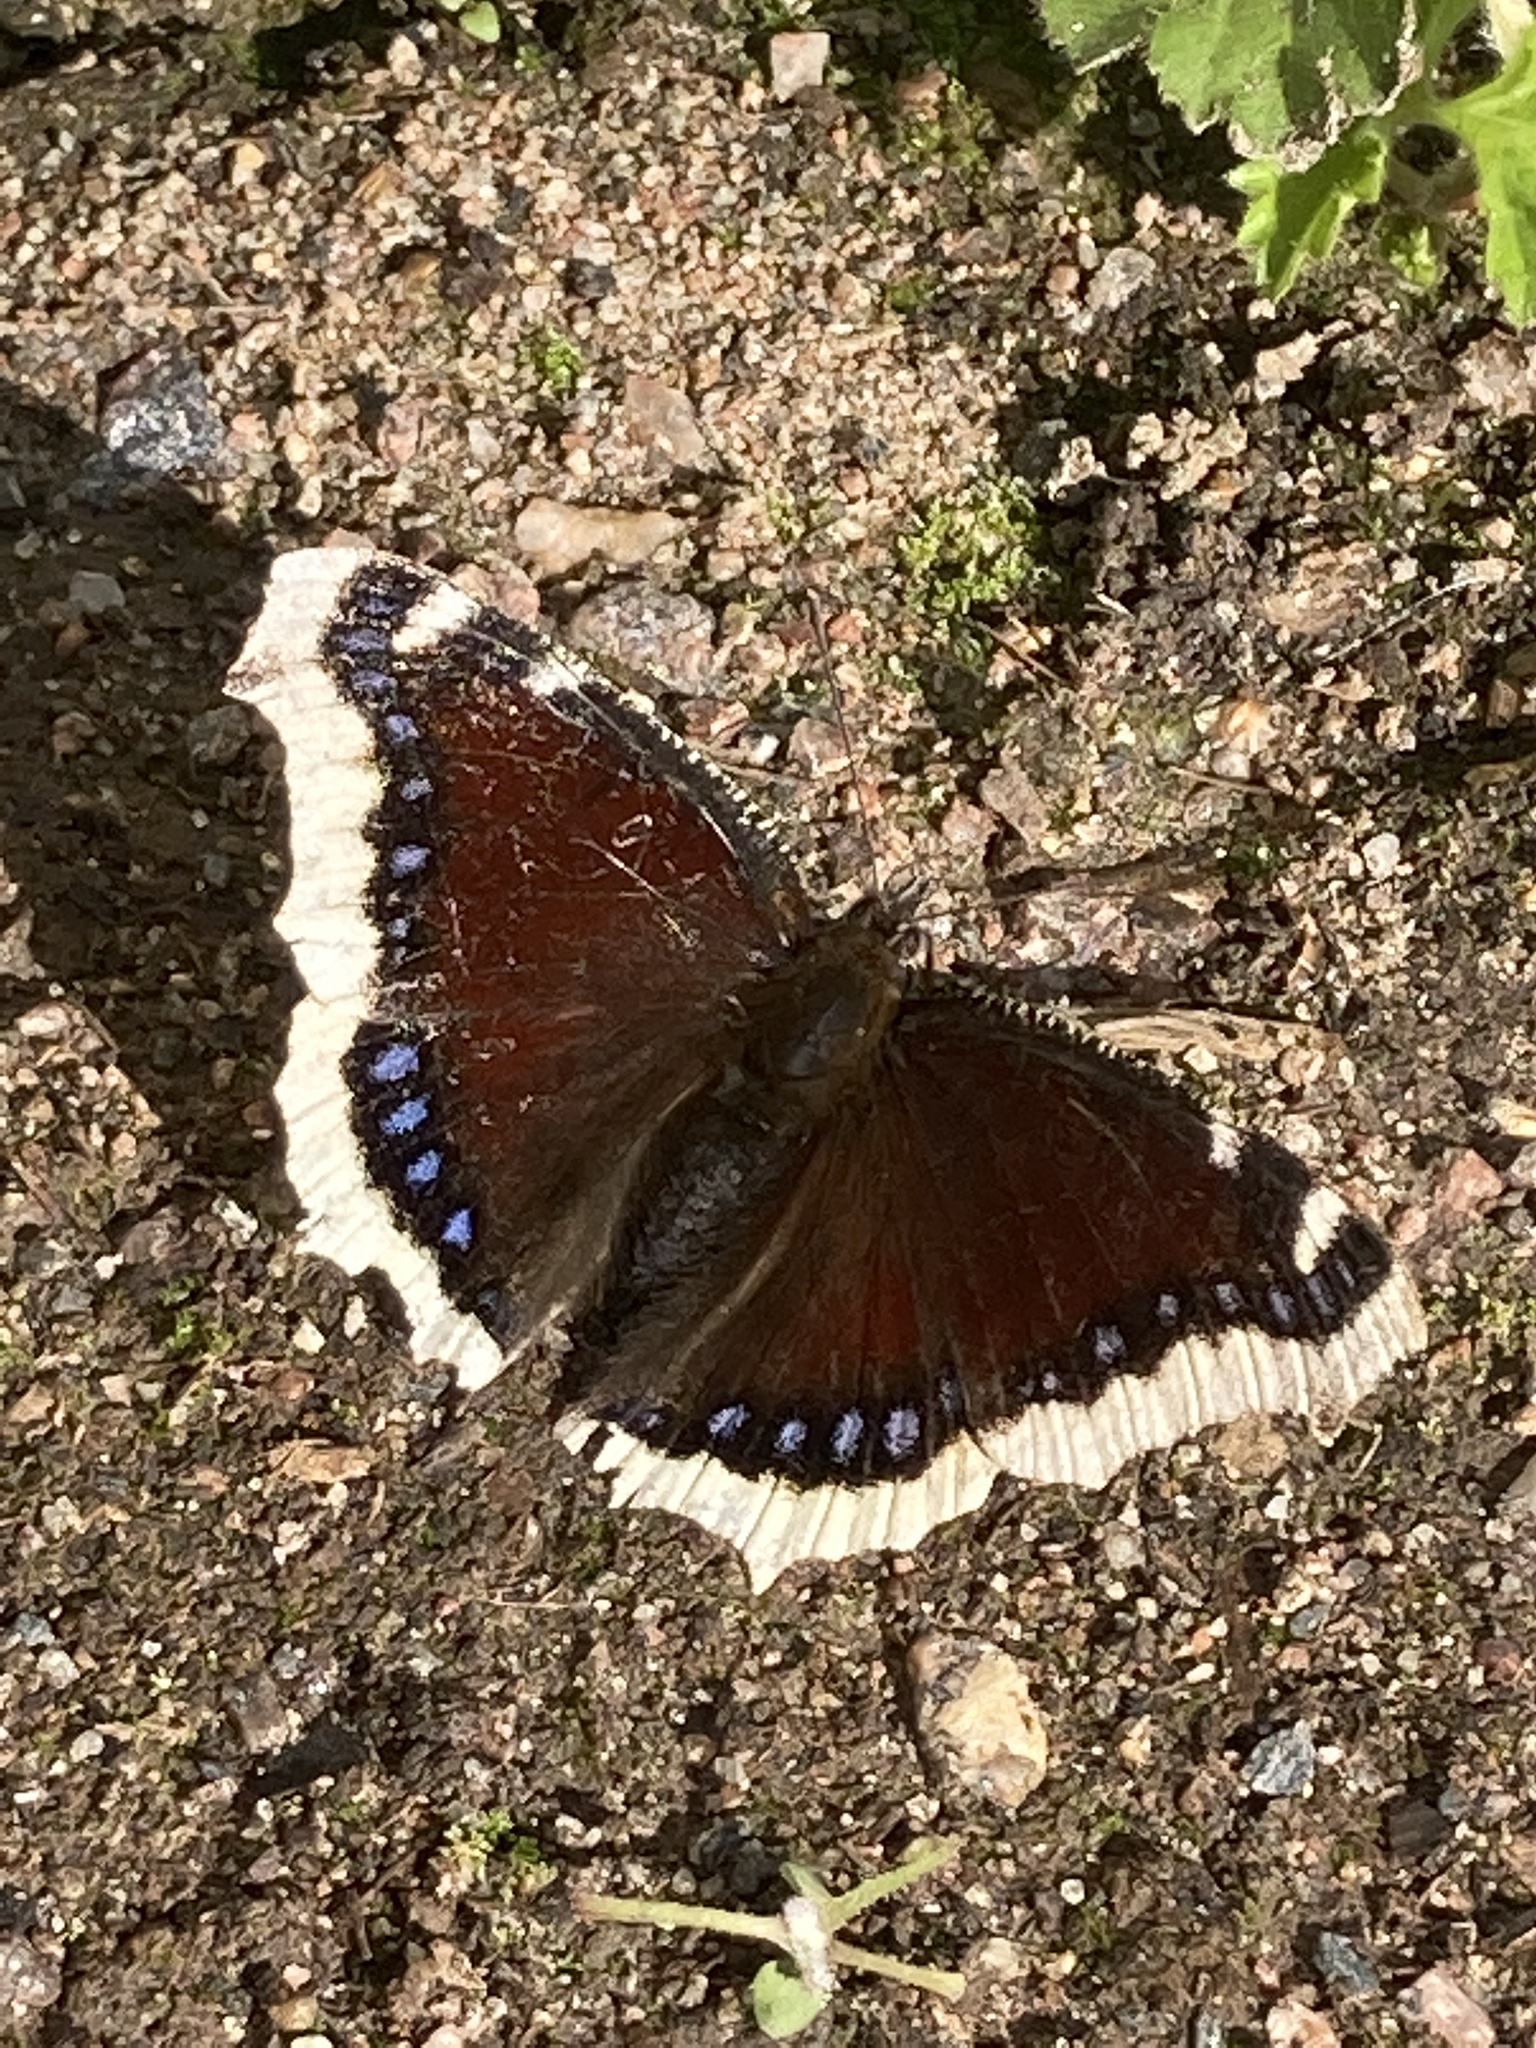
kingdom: Animalia
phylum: Arthropoda
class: Insecta
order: Lepidoptera
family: Nymphalidae
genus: Nymphalis
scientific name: Nymphalis antiopa
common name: Camberwell beauty
